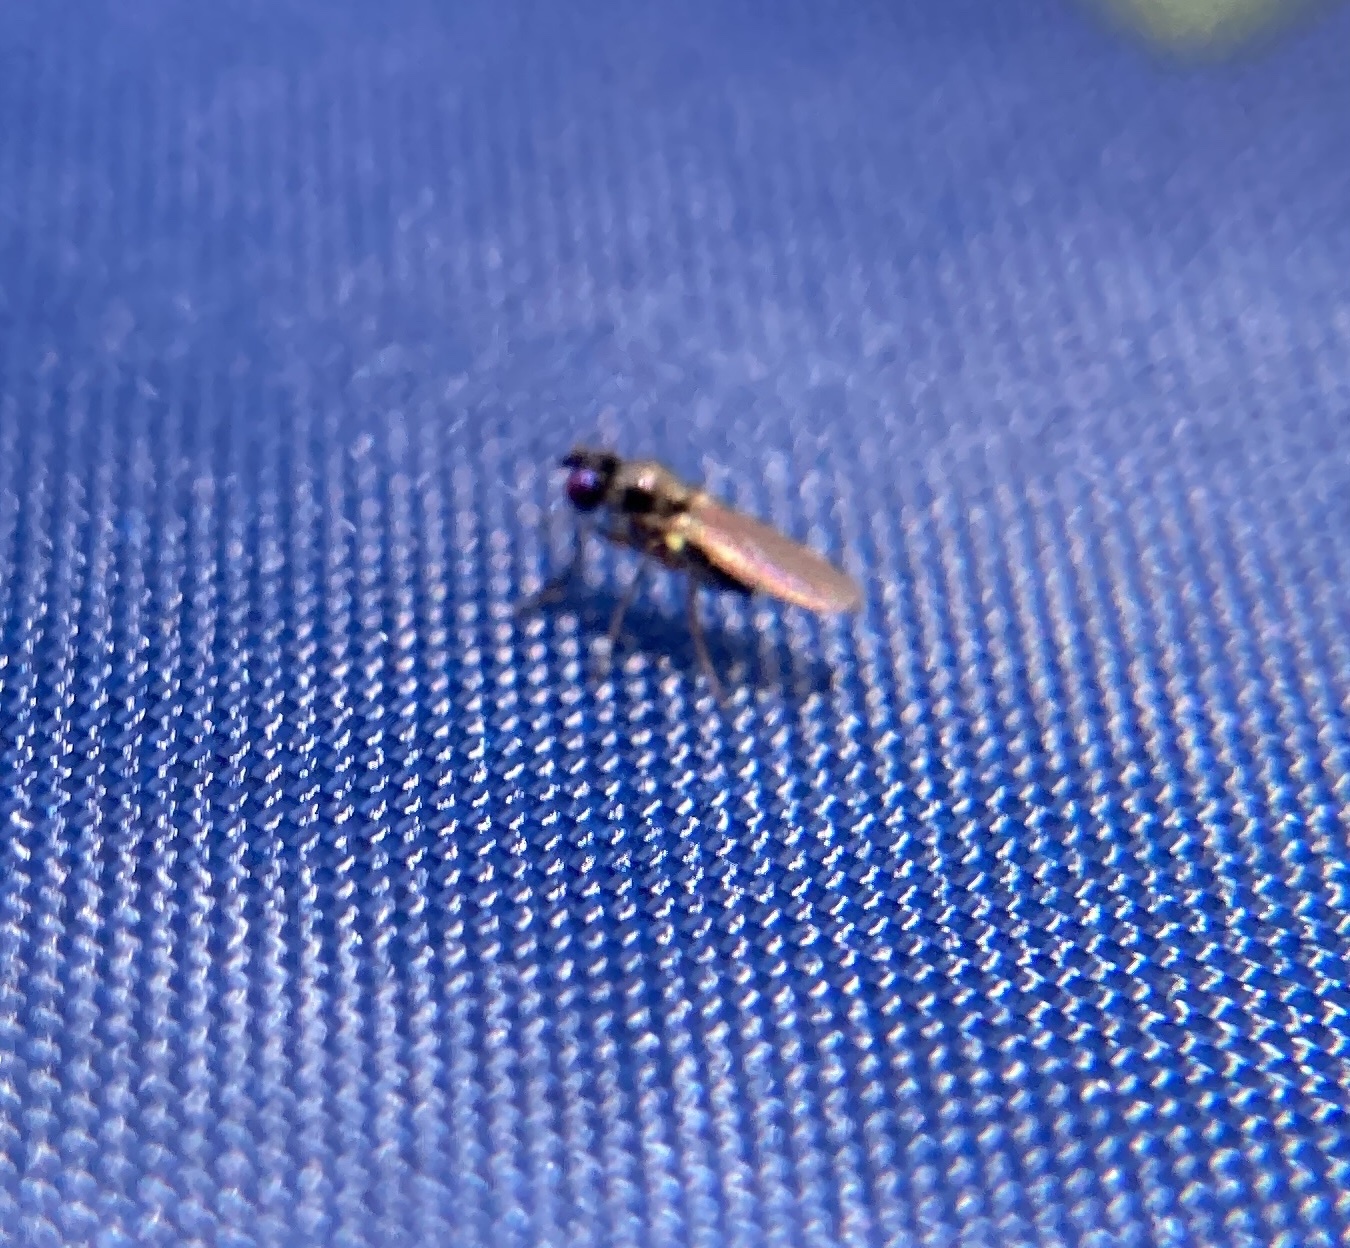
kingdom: Animalia
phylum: Arthropoda
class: Insecta
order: Diptera
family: Ephydridae
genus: Hydrellia
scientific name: Hydrellia tritici
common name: Shore fly
